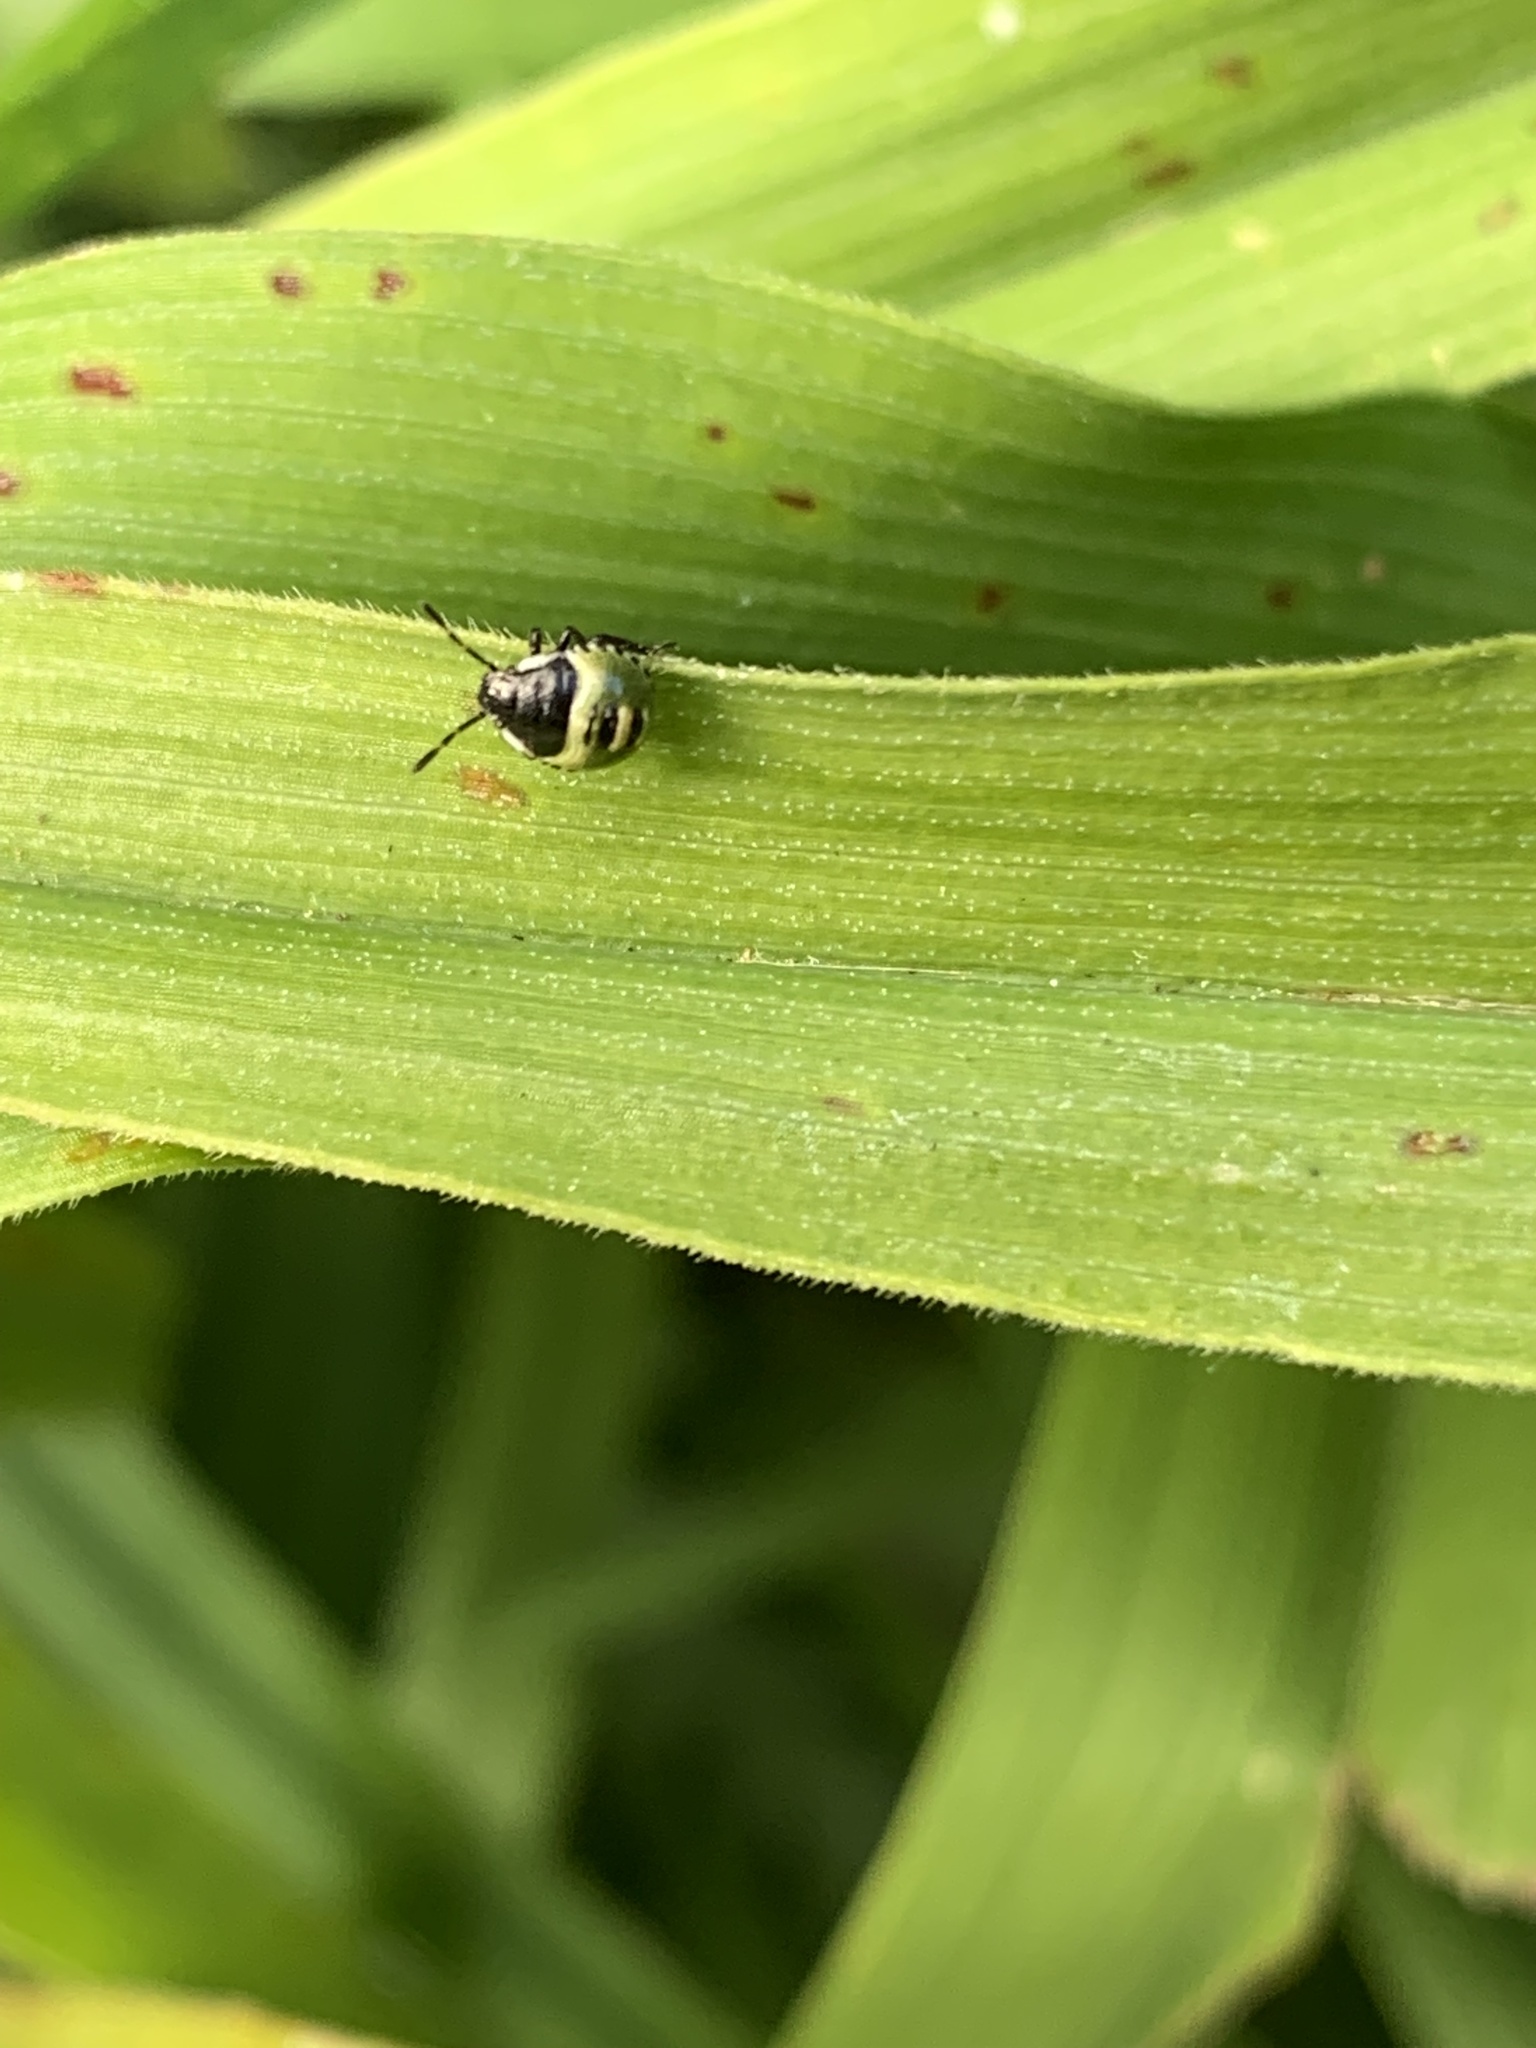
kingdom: Animalia
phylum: Arthropoda
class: Insecta
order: Hemiptera
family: Pentatomidae
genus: Palomena
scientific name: Palomena prasina
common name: Green shieldbug
